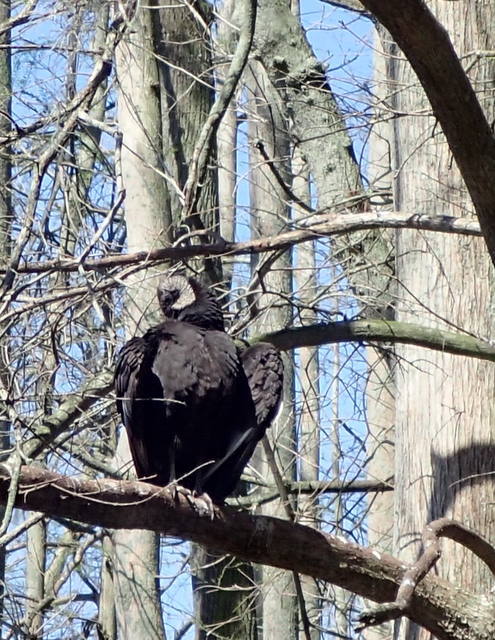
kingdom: Animalia
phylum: Chordata
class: Aves
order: Accipitriformes
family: Cathartidae
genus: Coragyps
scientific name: Coragyps atratus
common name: Black vulture
